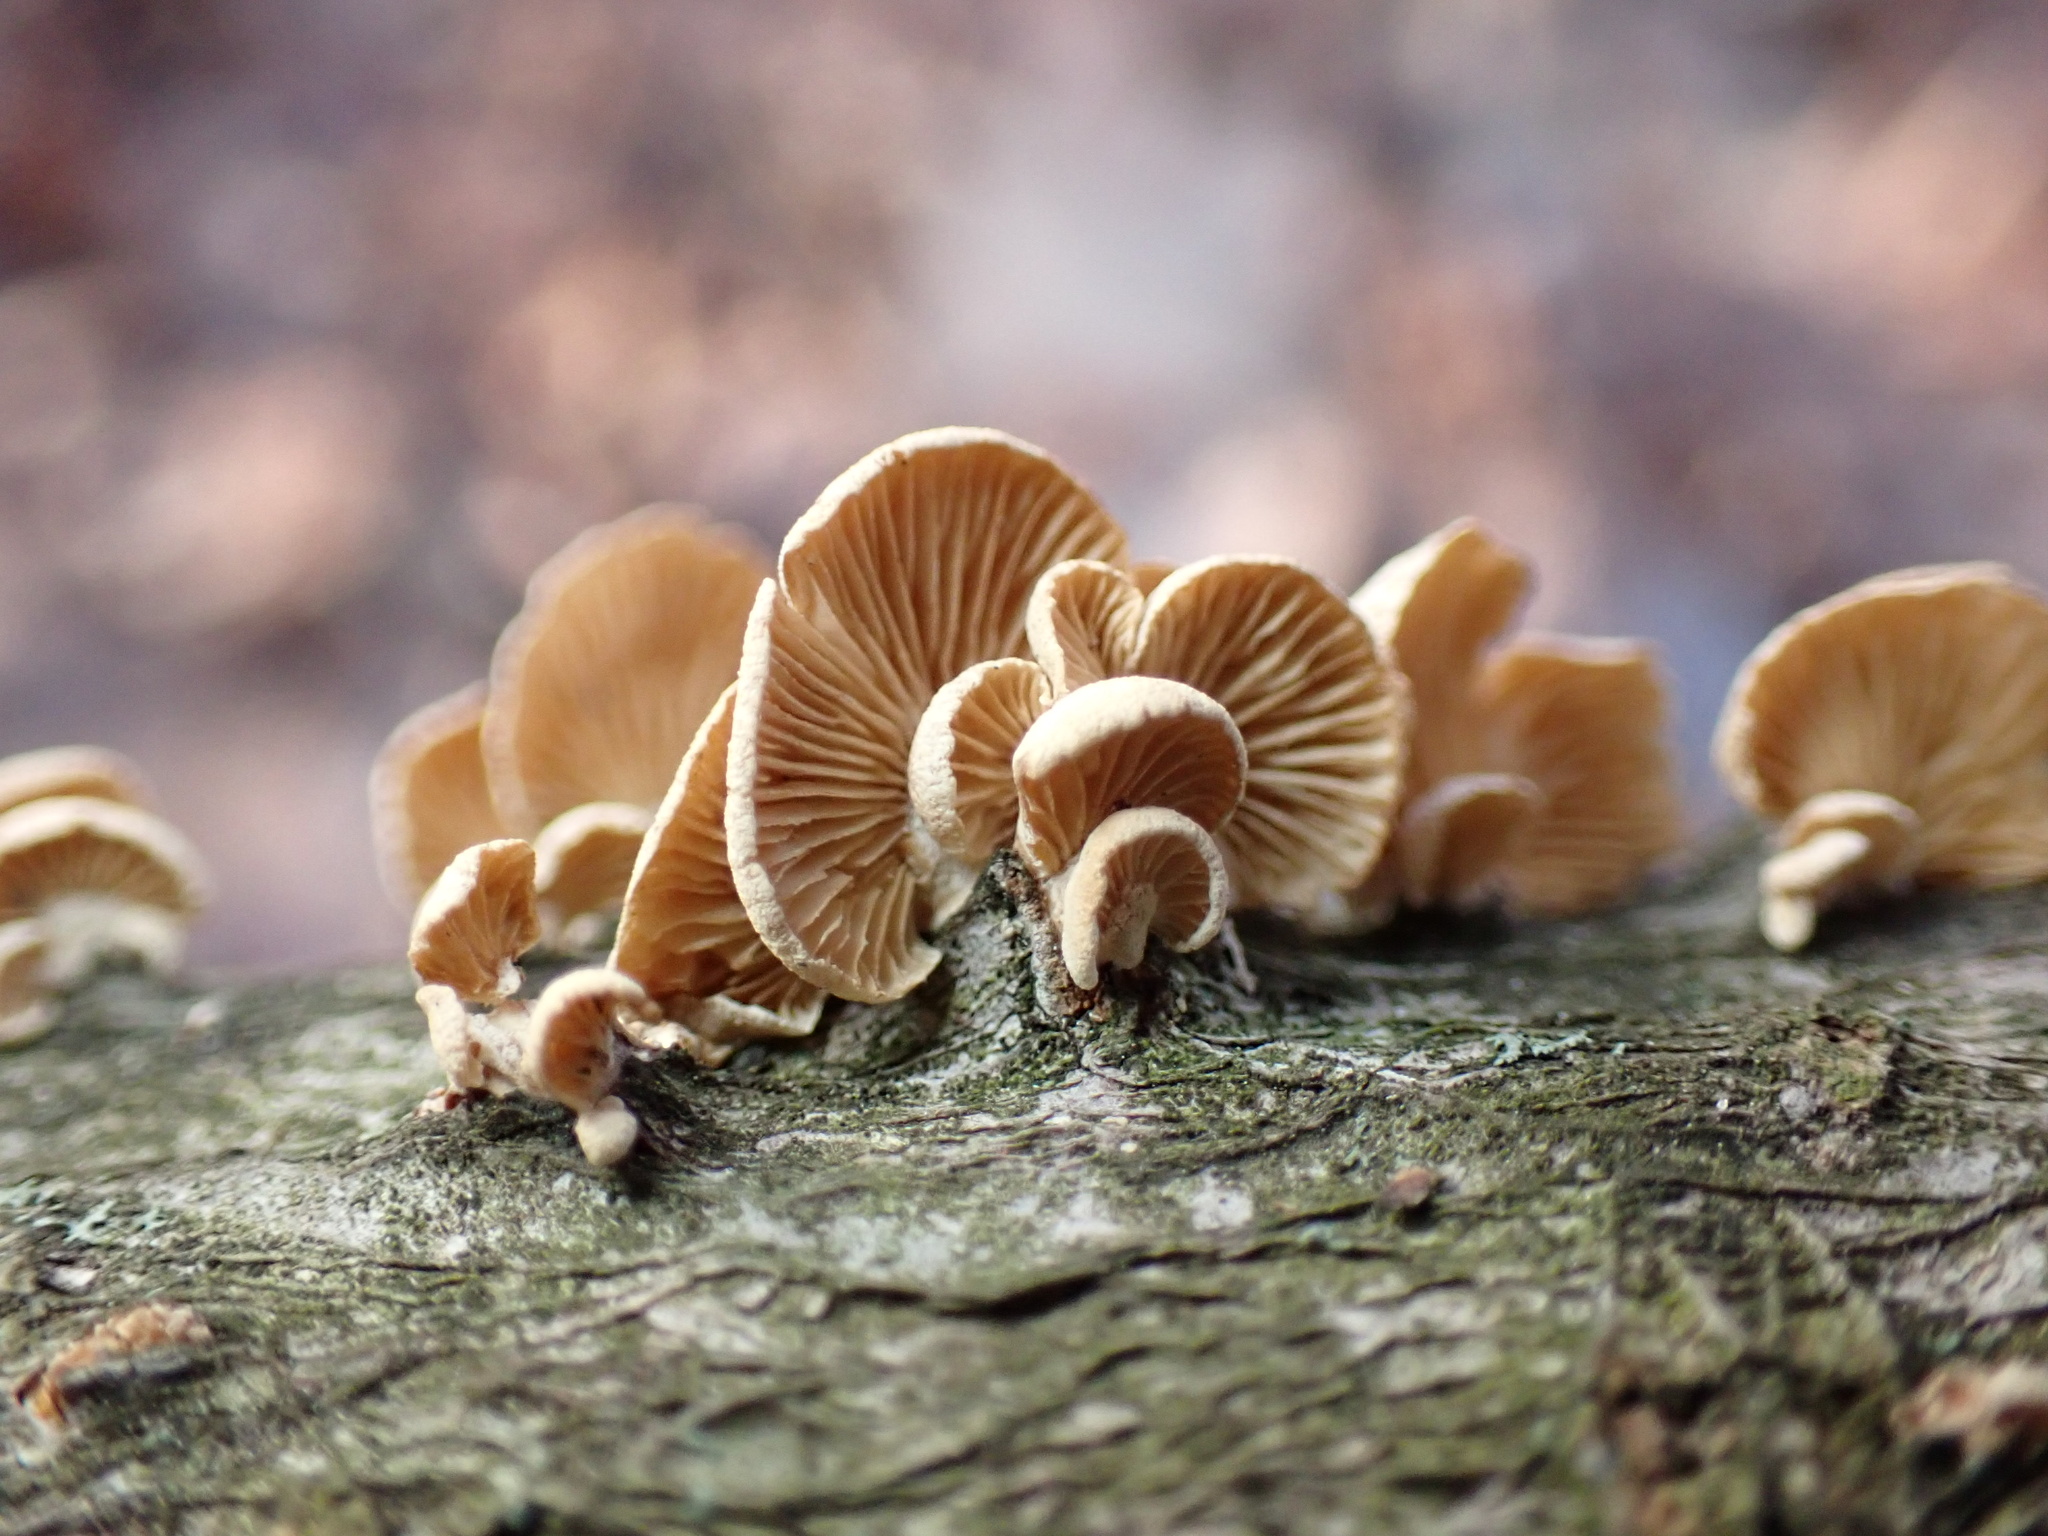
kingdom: Fungi
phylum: Basidiomycota
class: Agaricomycetes
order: Agaricales
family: Mycenaceae
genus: Panellus
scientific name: Panellus stipticus
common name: Bitter oysterling
